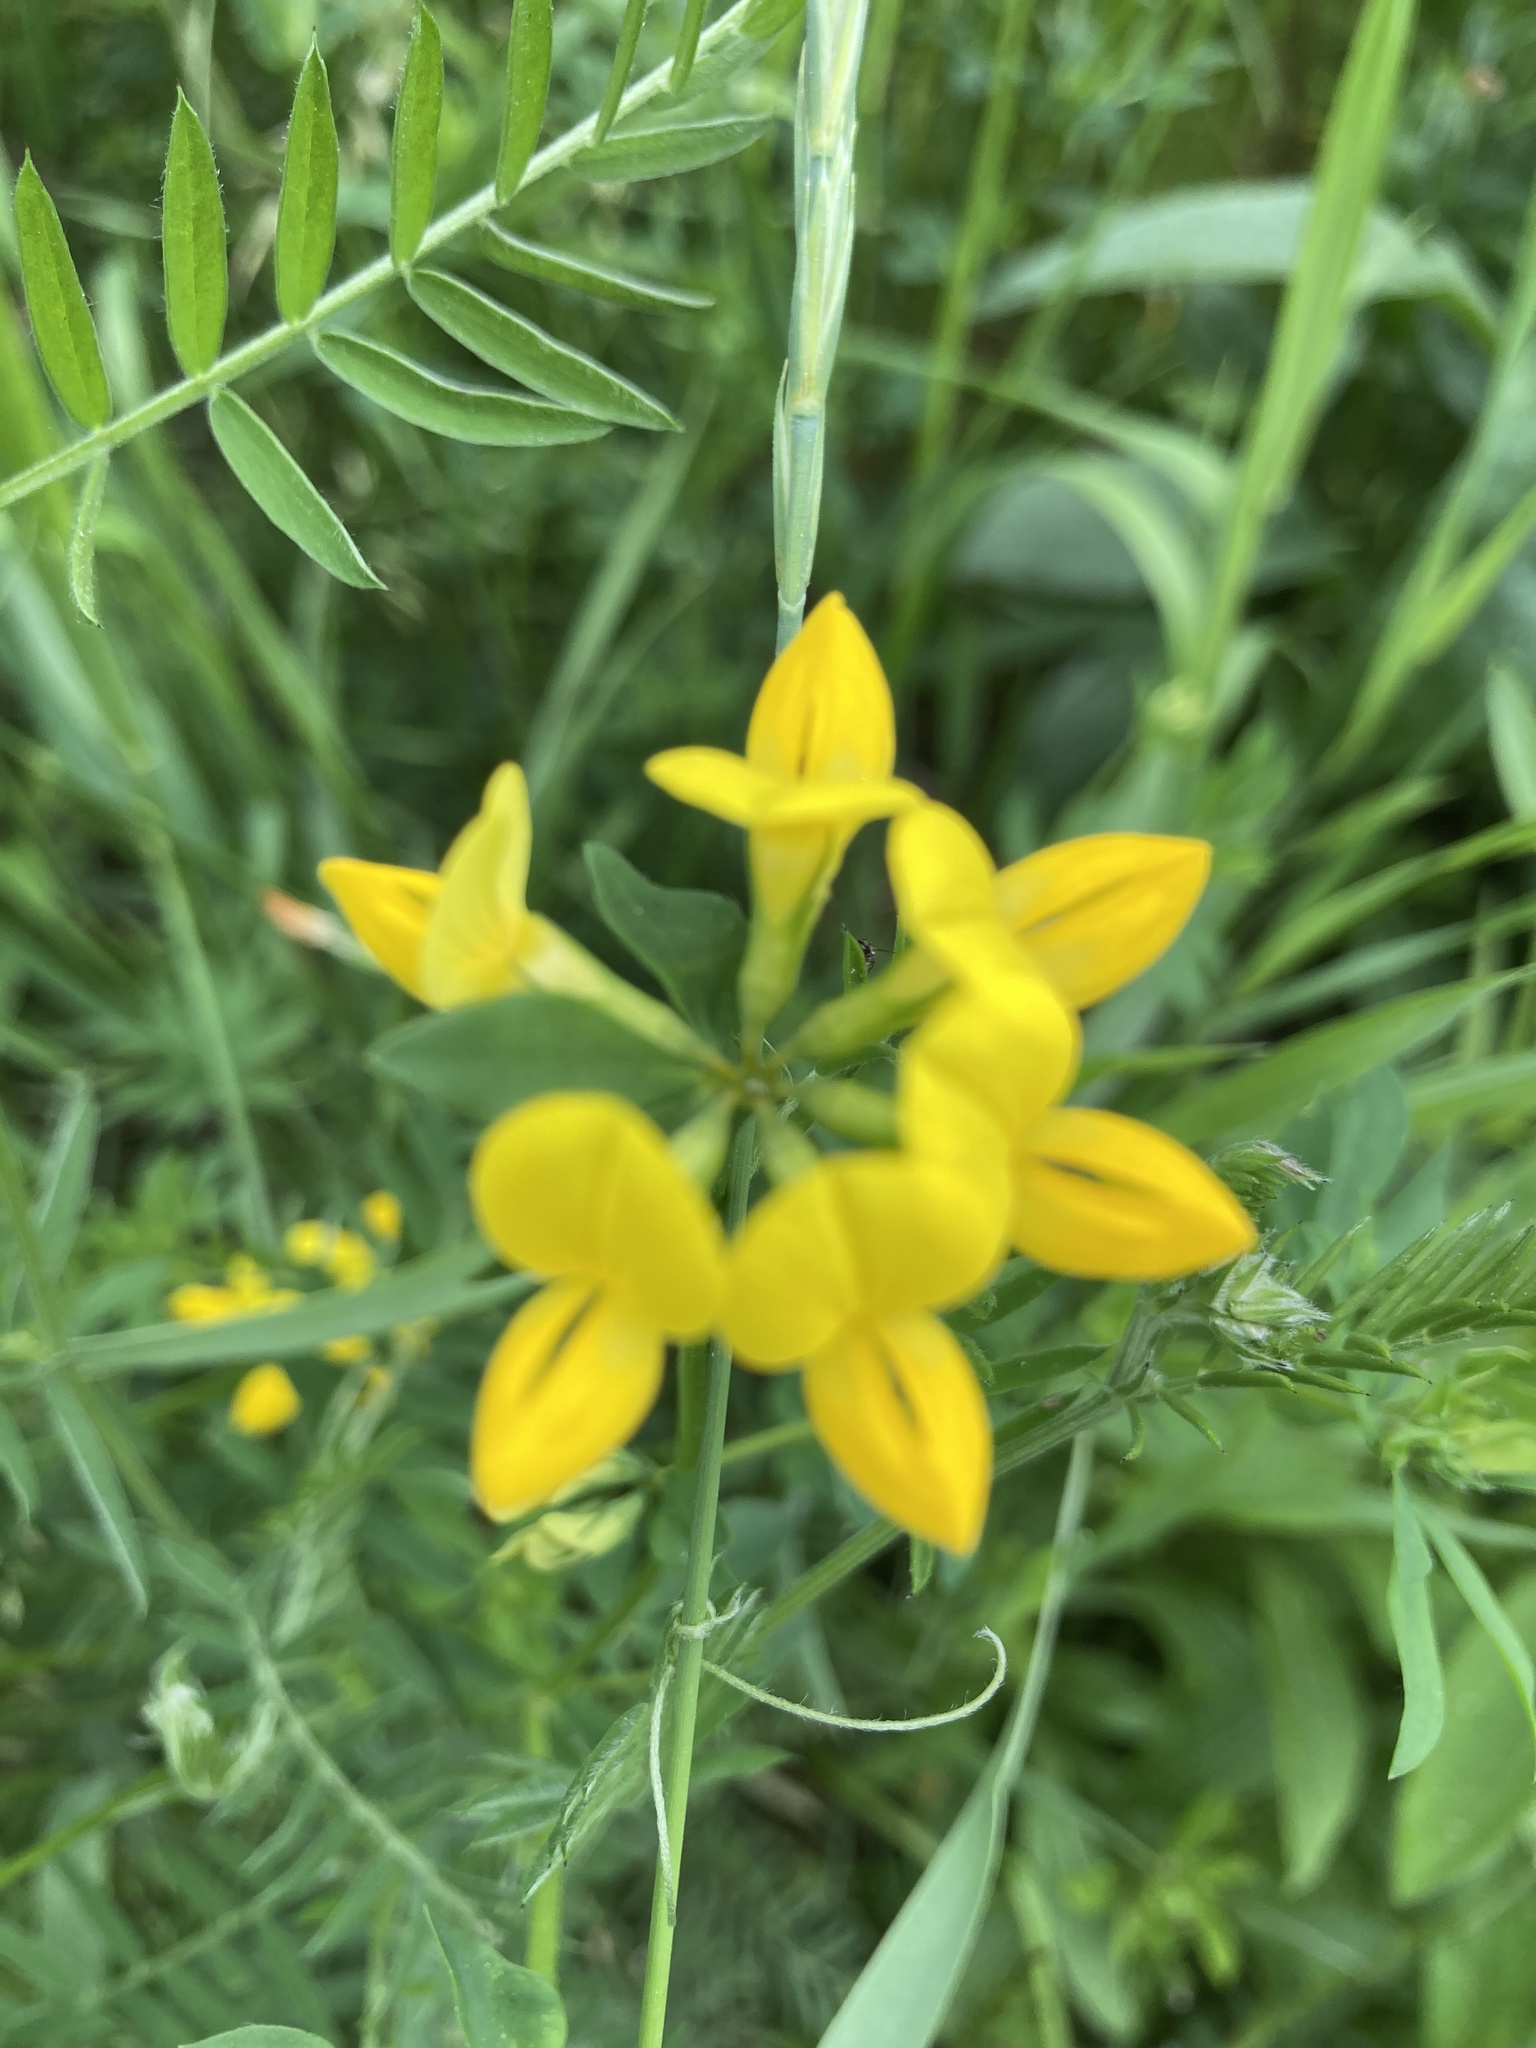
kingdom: Plantae
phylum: Tracheophyta
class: Magnoliopsida
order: Fabales
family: Fabaceae
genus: Lotus
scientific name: Lotus corniculatus
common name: Common bird's-foot-trefoil
